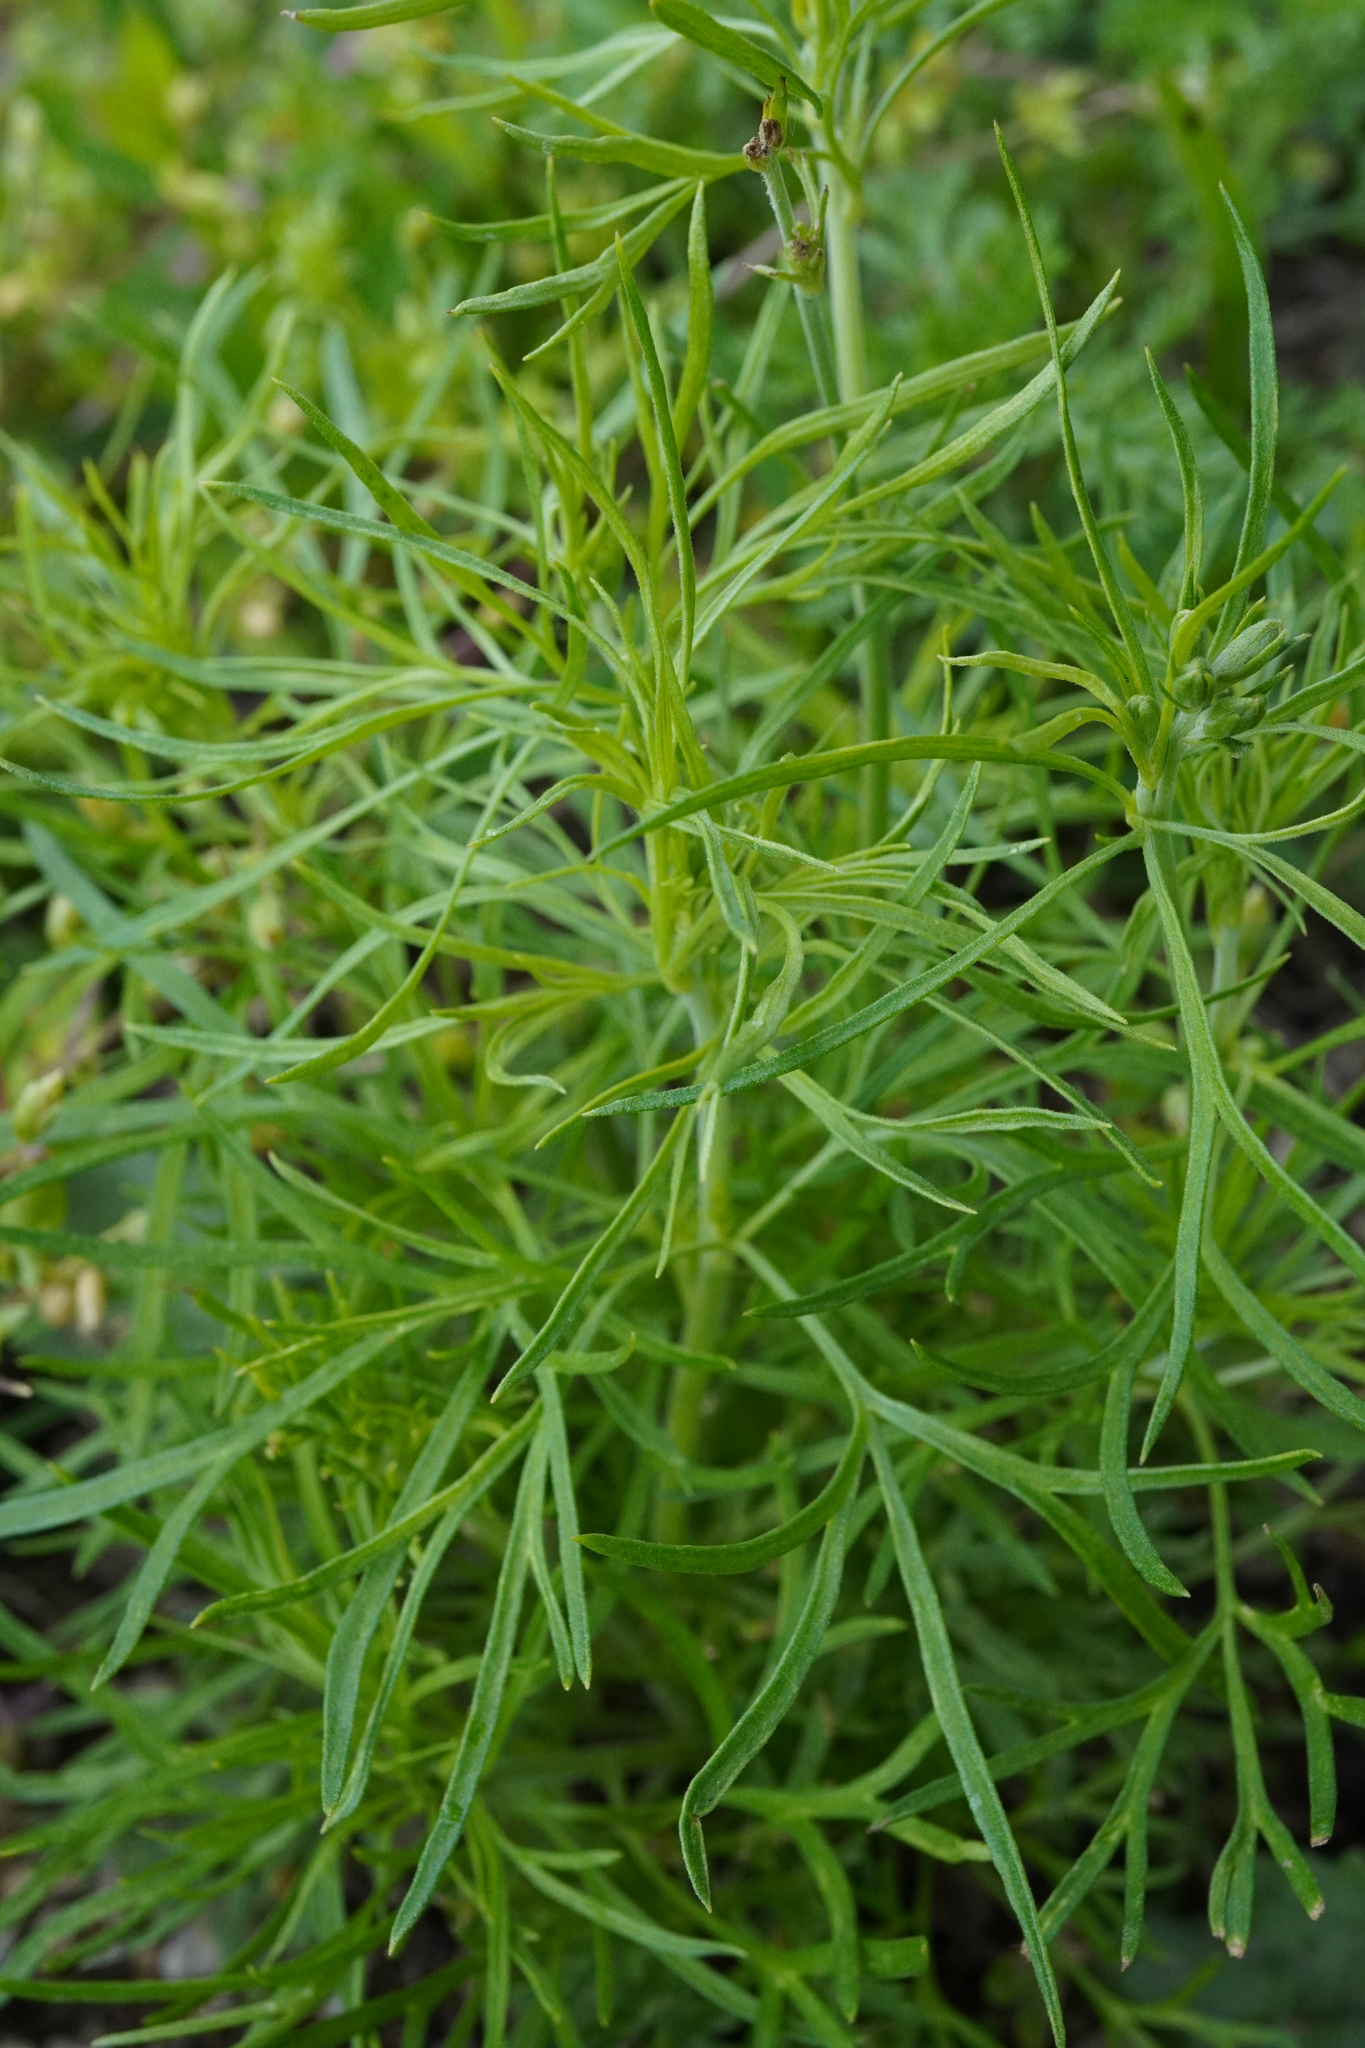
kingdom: Plantae
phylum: Tracheophyta
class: Magnoliopsida
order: Ranunculales
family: Ranunculaceae
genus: Delphinium
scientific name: Delphinium consolida
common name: Branching larkspur
